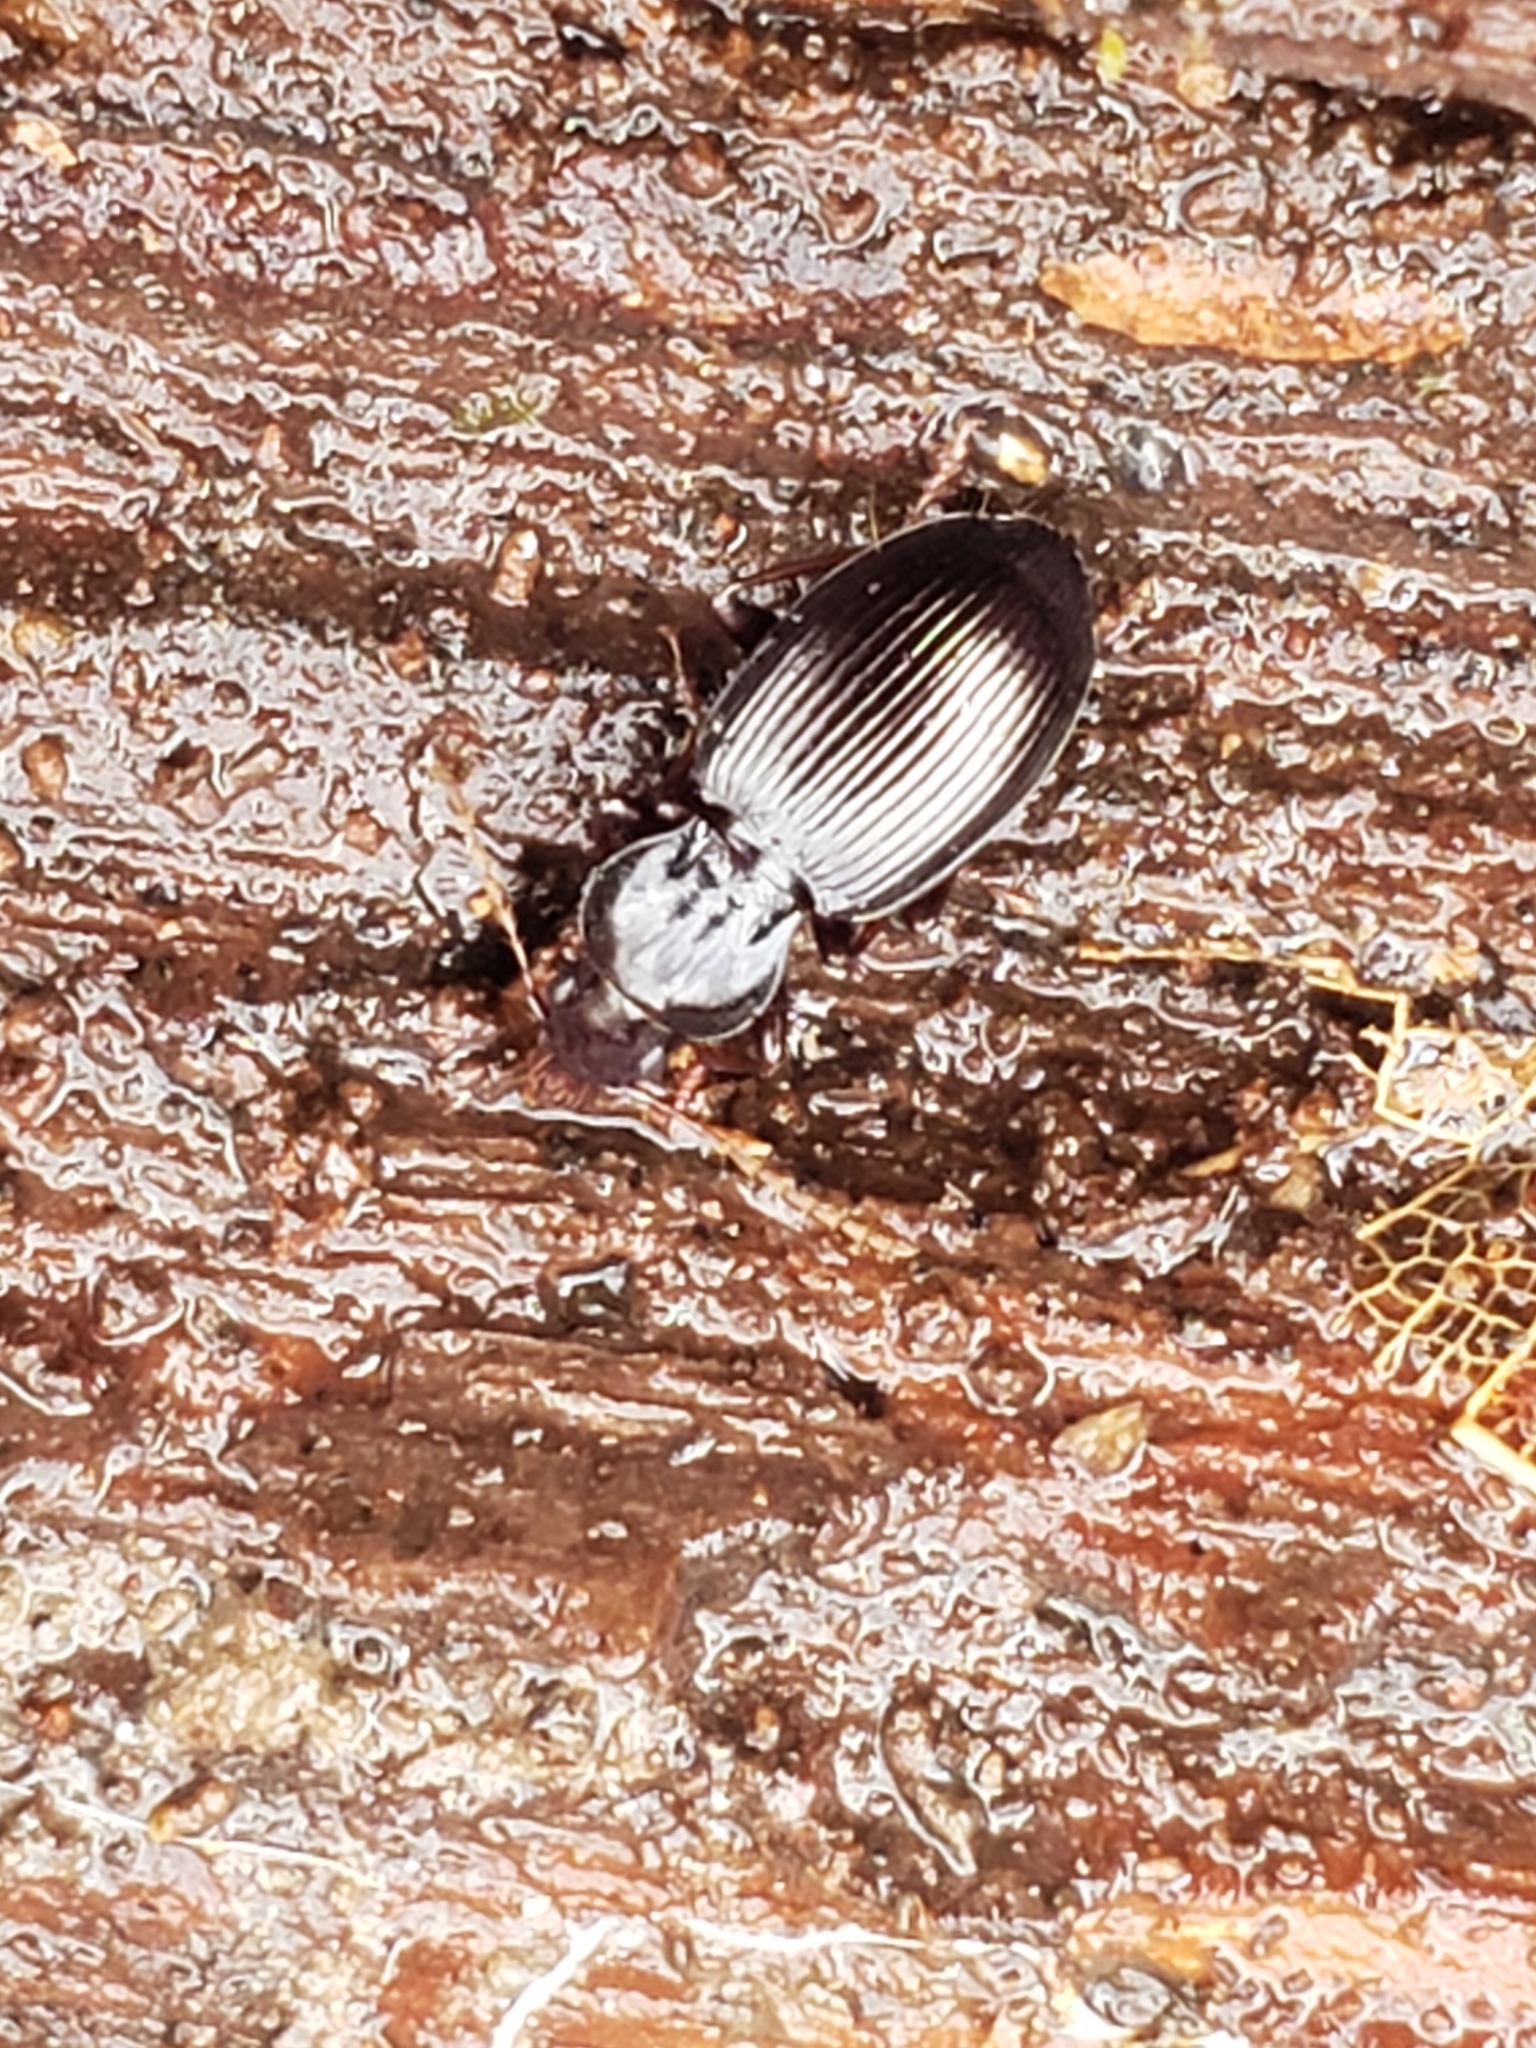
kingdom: Animalia
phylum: Arthropoda
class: Insecta
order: Coleoptera
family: Carabidae
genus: Gastrellarius
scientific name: Gastrellarius honestus
